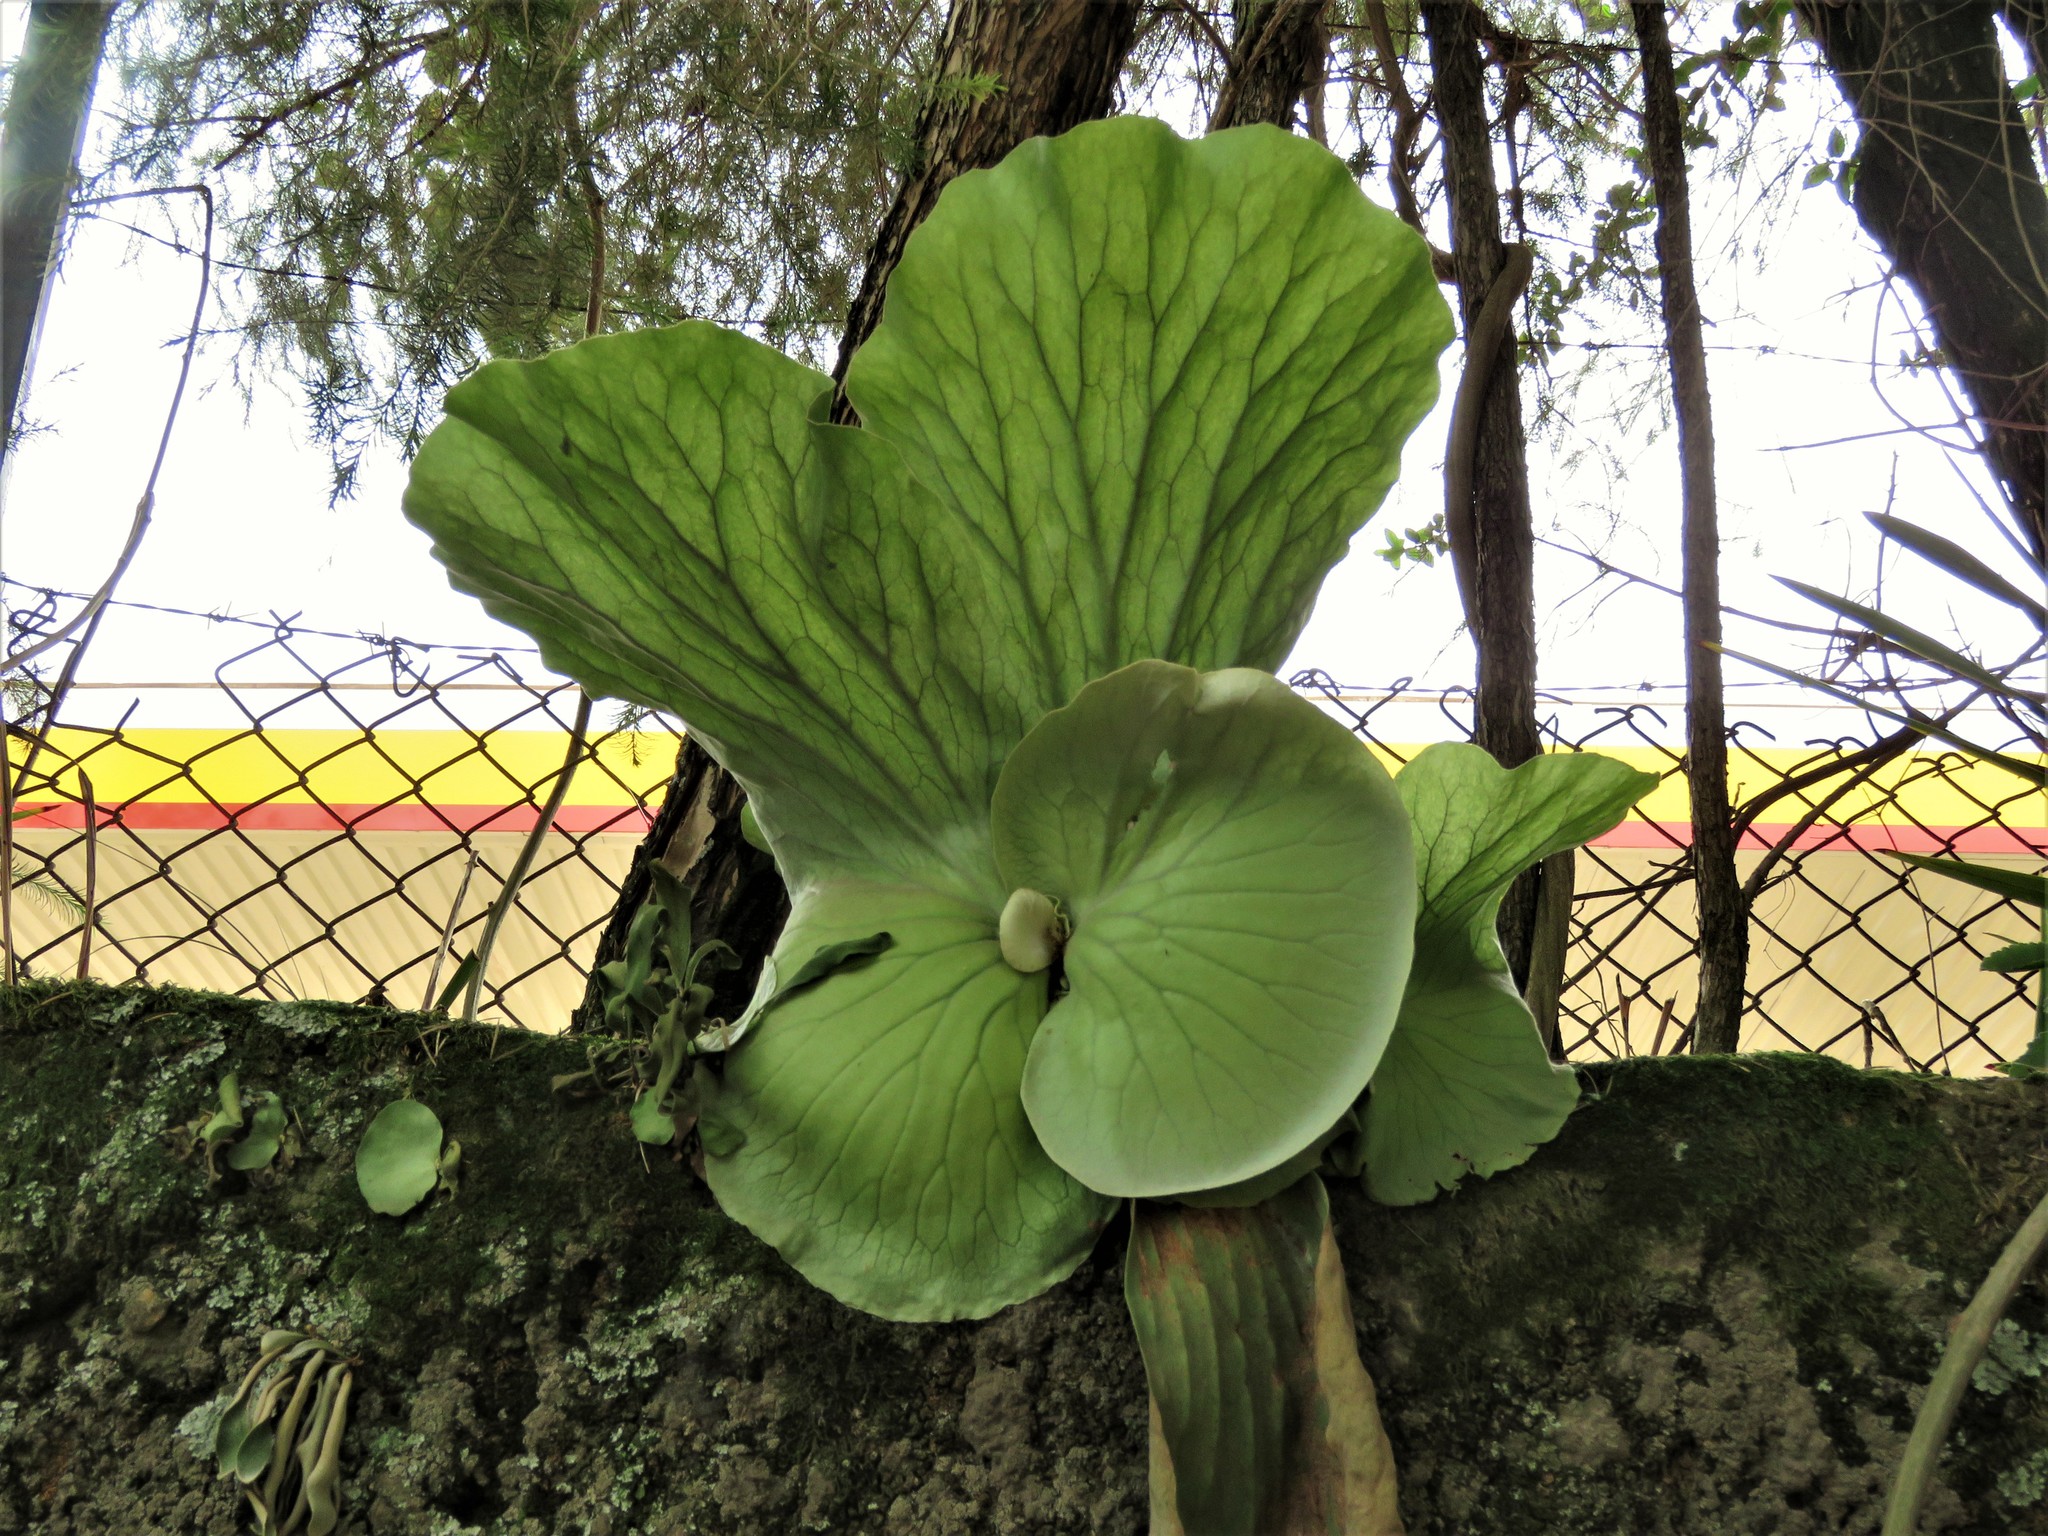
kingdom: Plantae
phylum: Tracheophyta
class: Polypodiopsida
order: Polypodiales
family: Polypodiaceae
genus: Platycerium
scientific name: Platycerium elephantotis
